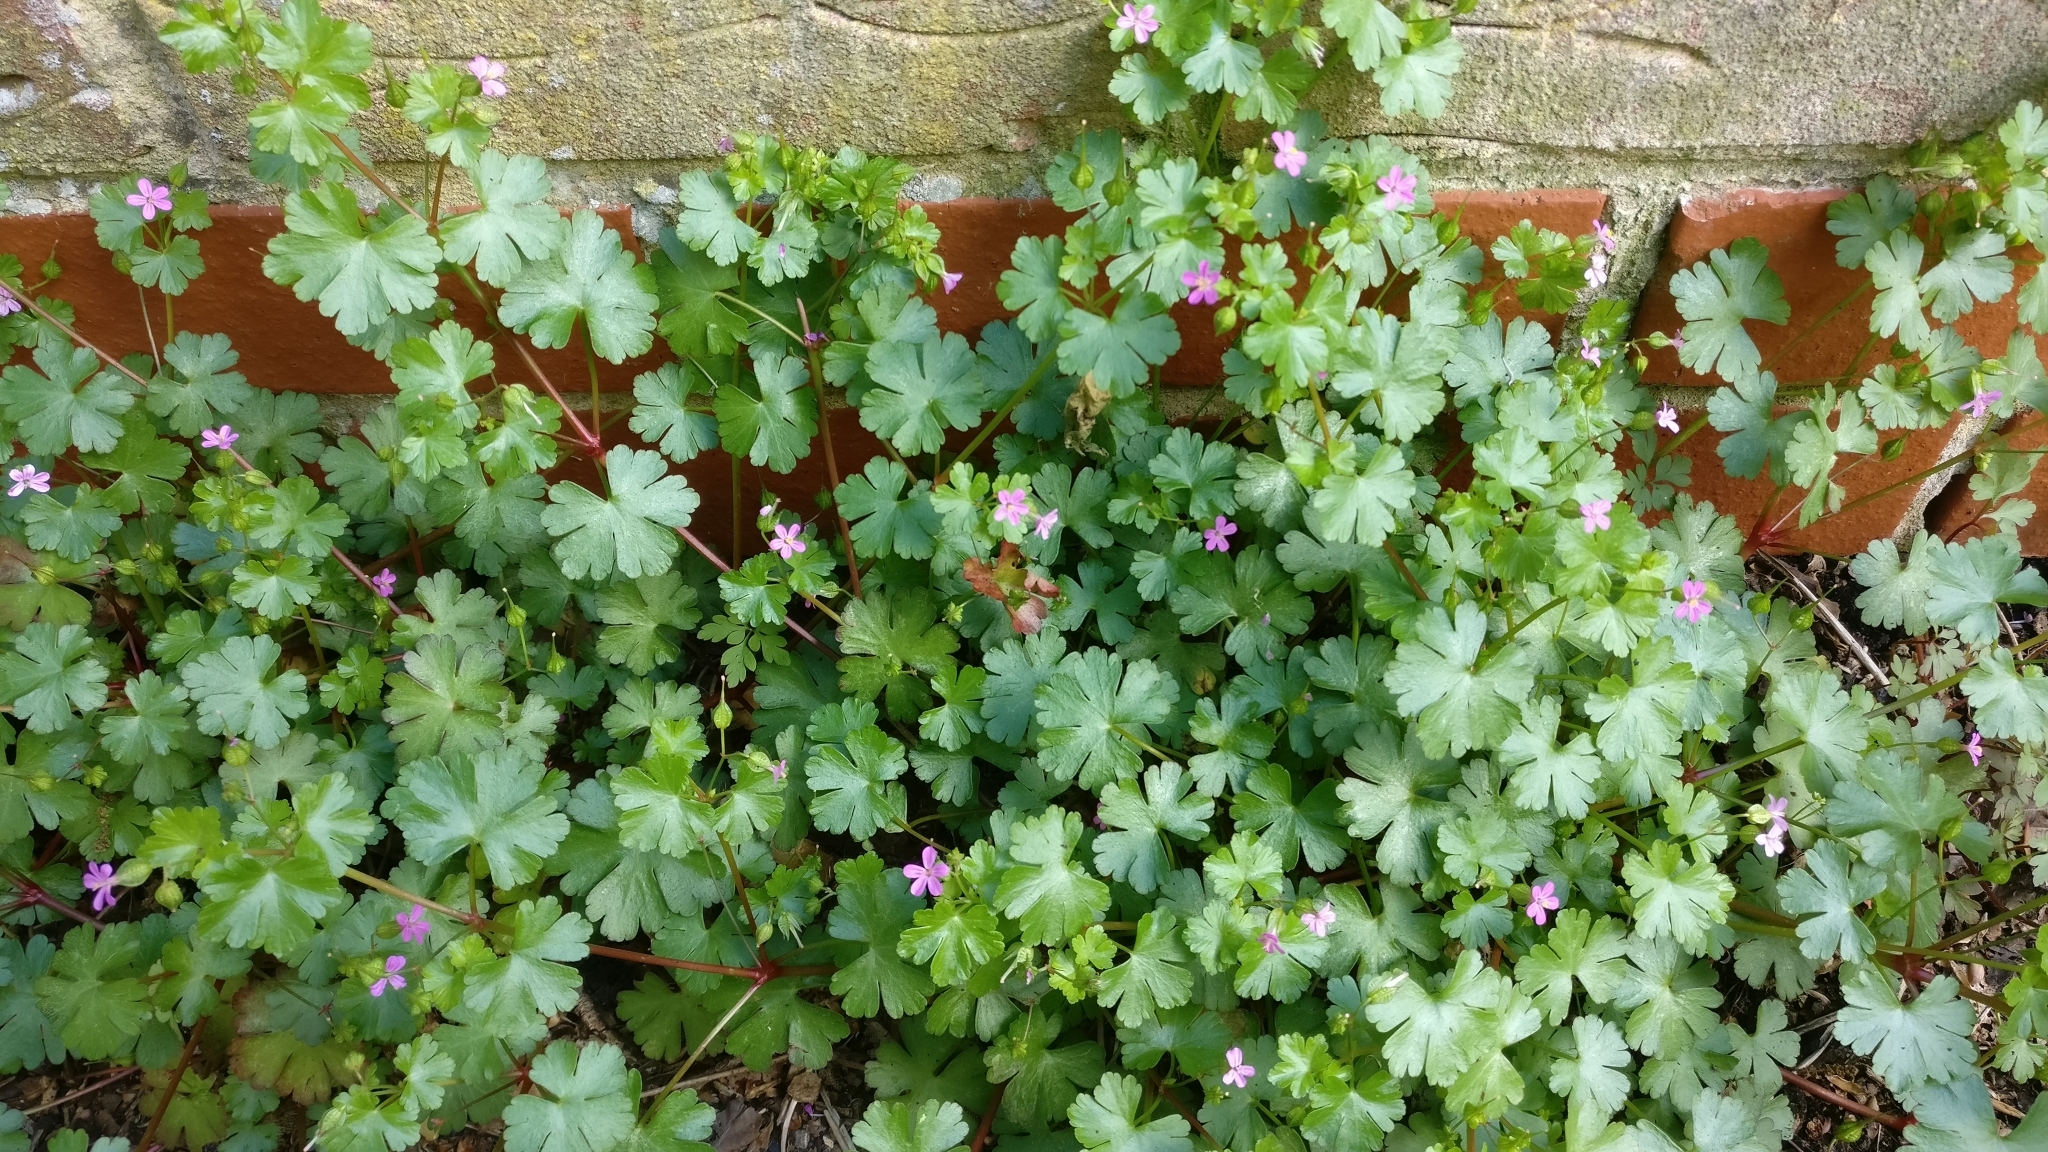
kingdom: Plantae
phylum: Tracheophyta
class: Magnoliopsida
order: Geraniales
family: Geraniaceae
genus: Geranium
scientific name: Geranium lucidum
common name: Shining crane's-bill
